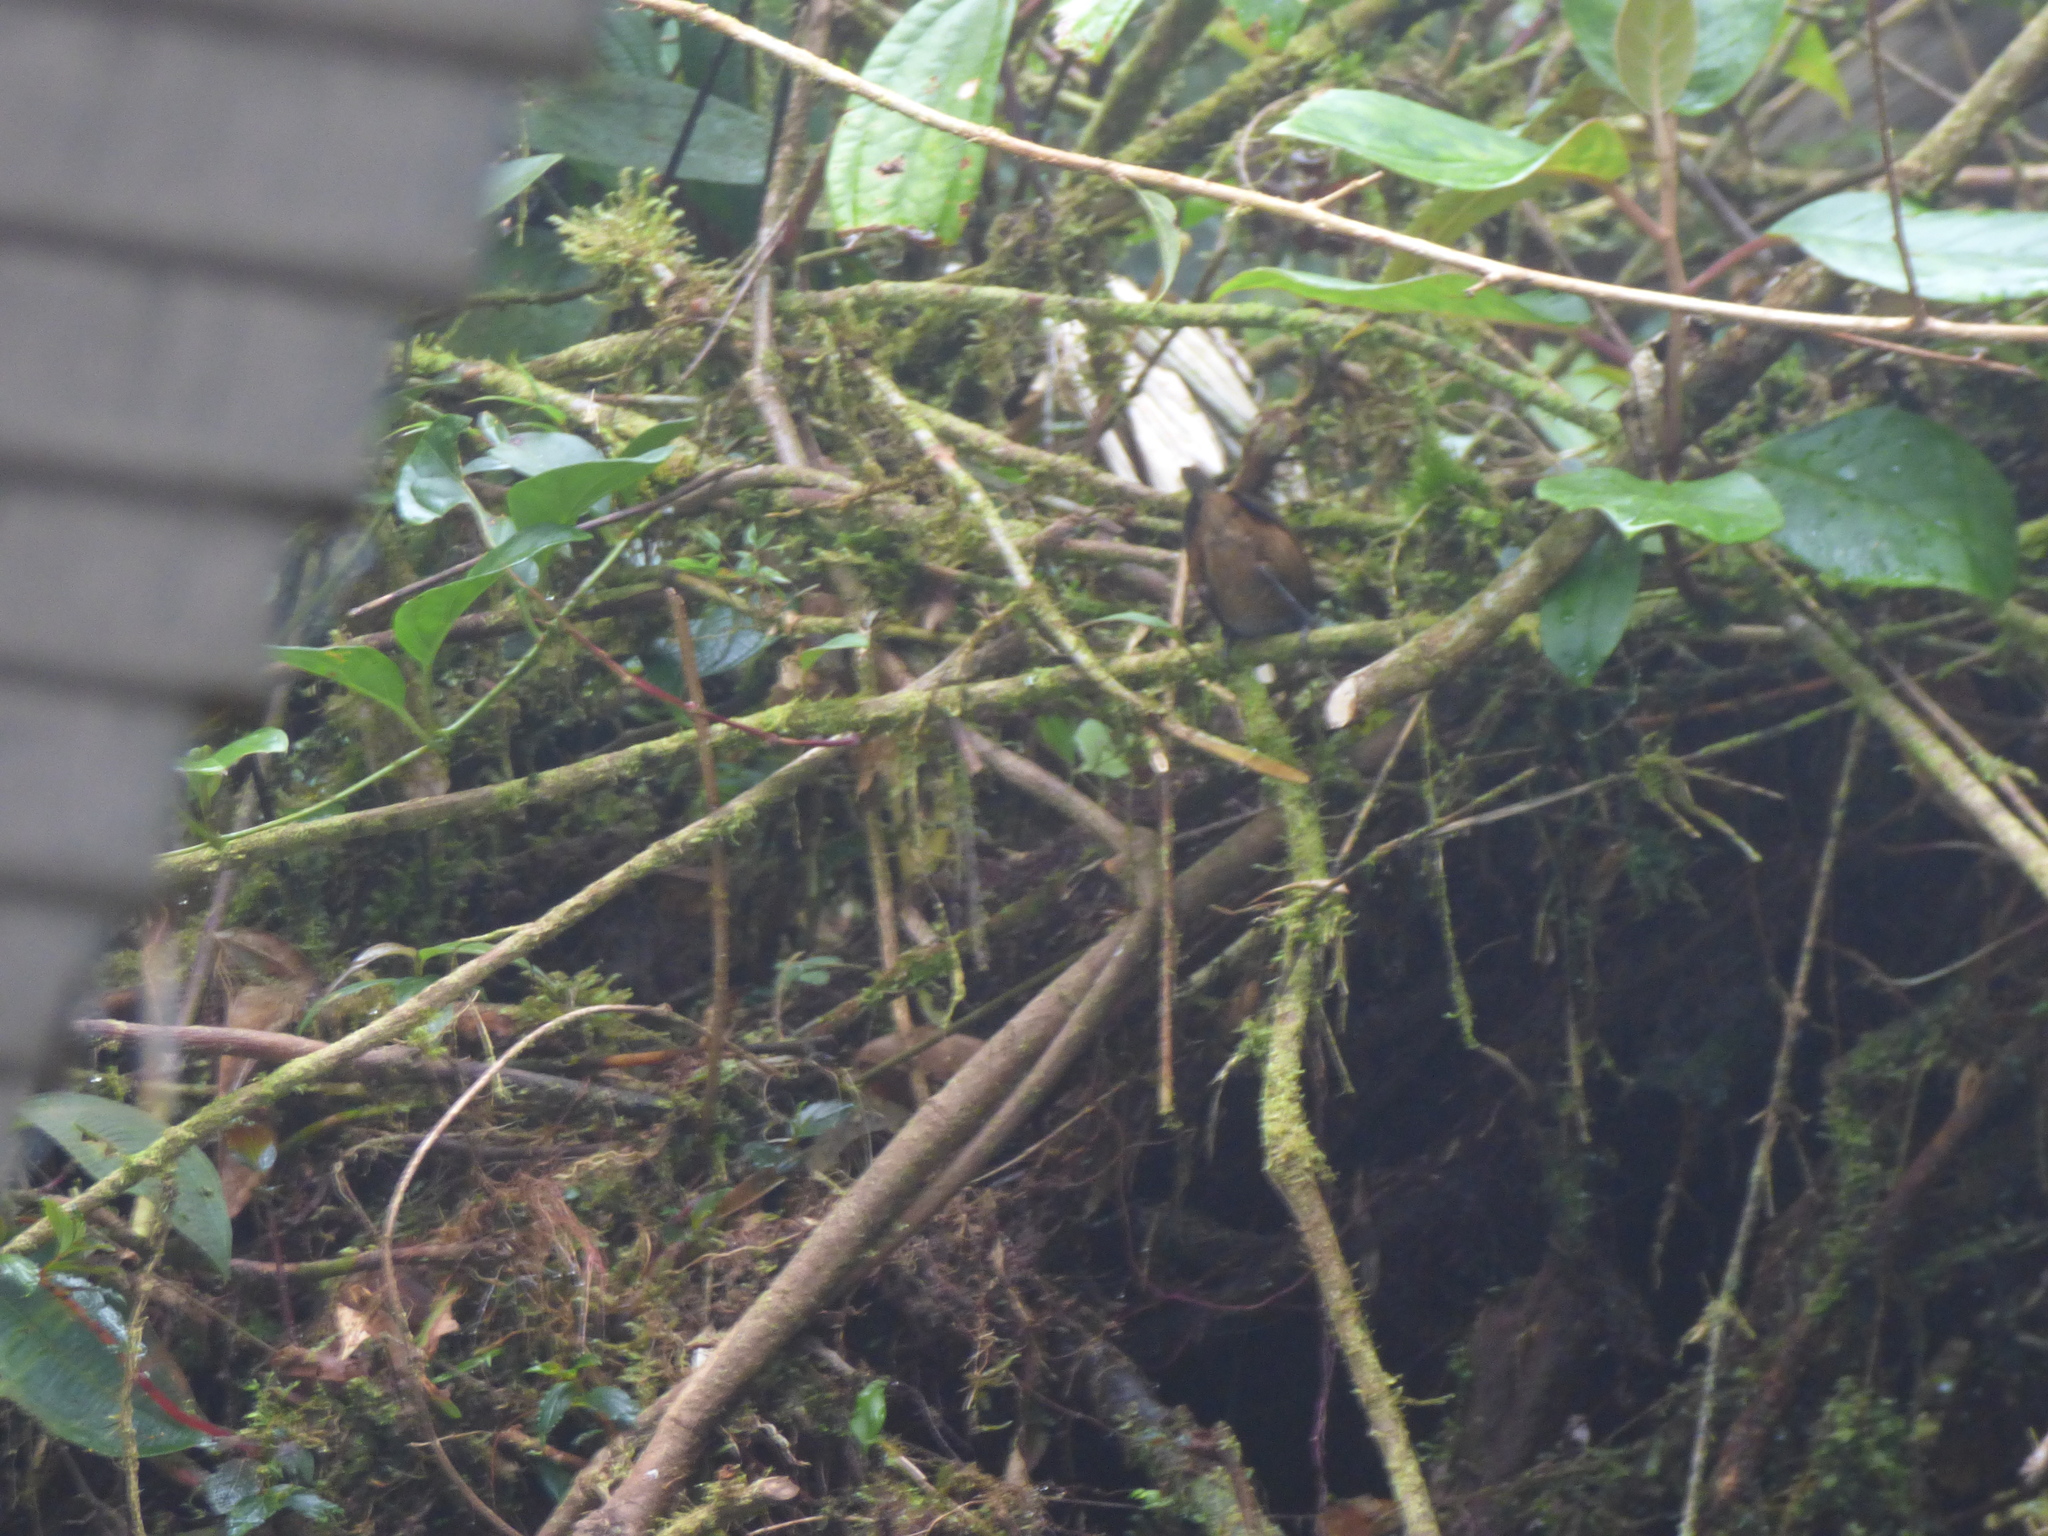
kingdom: Animalia
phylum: Chordata
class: Aves
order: Passeriformes
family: Troglodytidae
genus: Henicorhina
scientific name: Henicorhina negreti
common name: Munchique wood-wren
